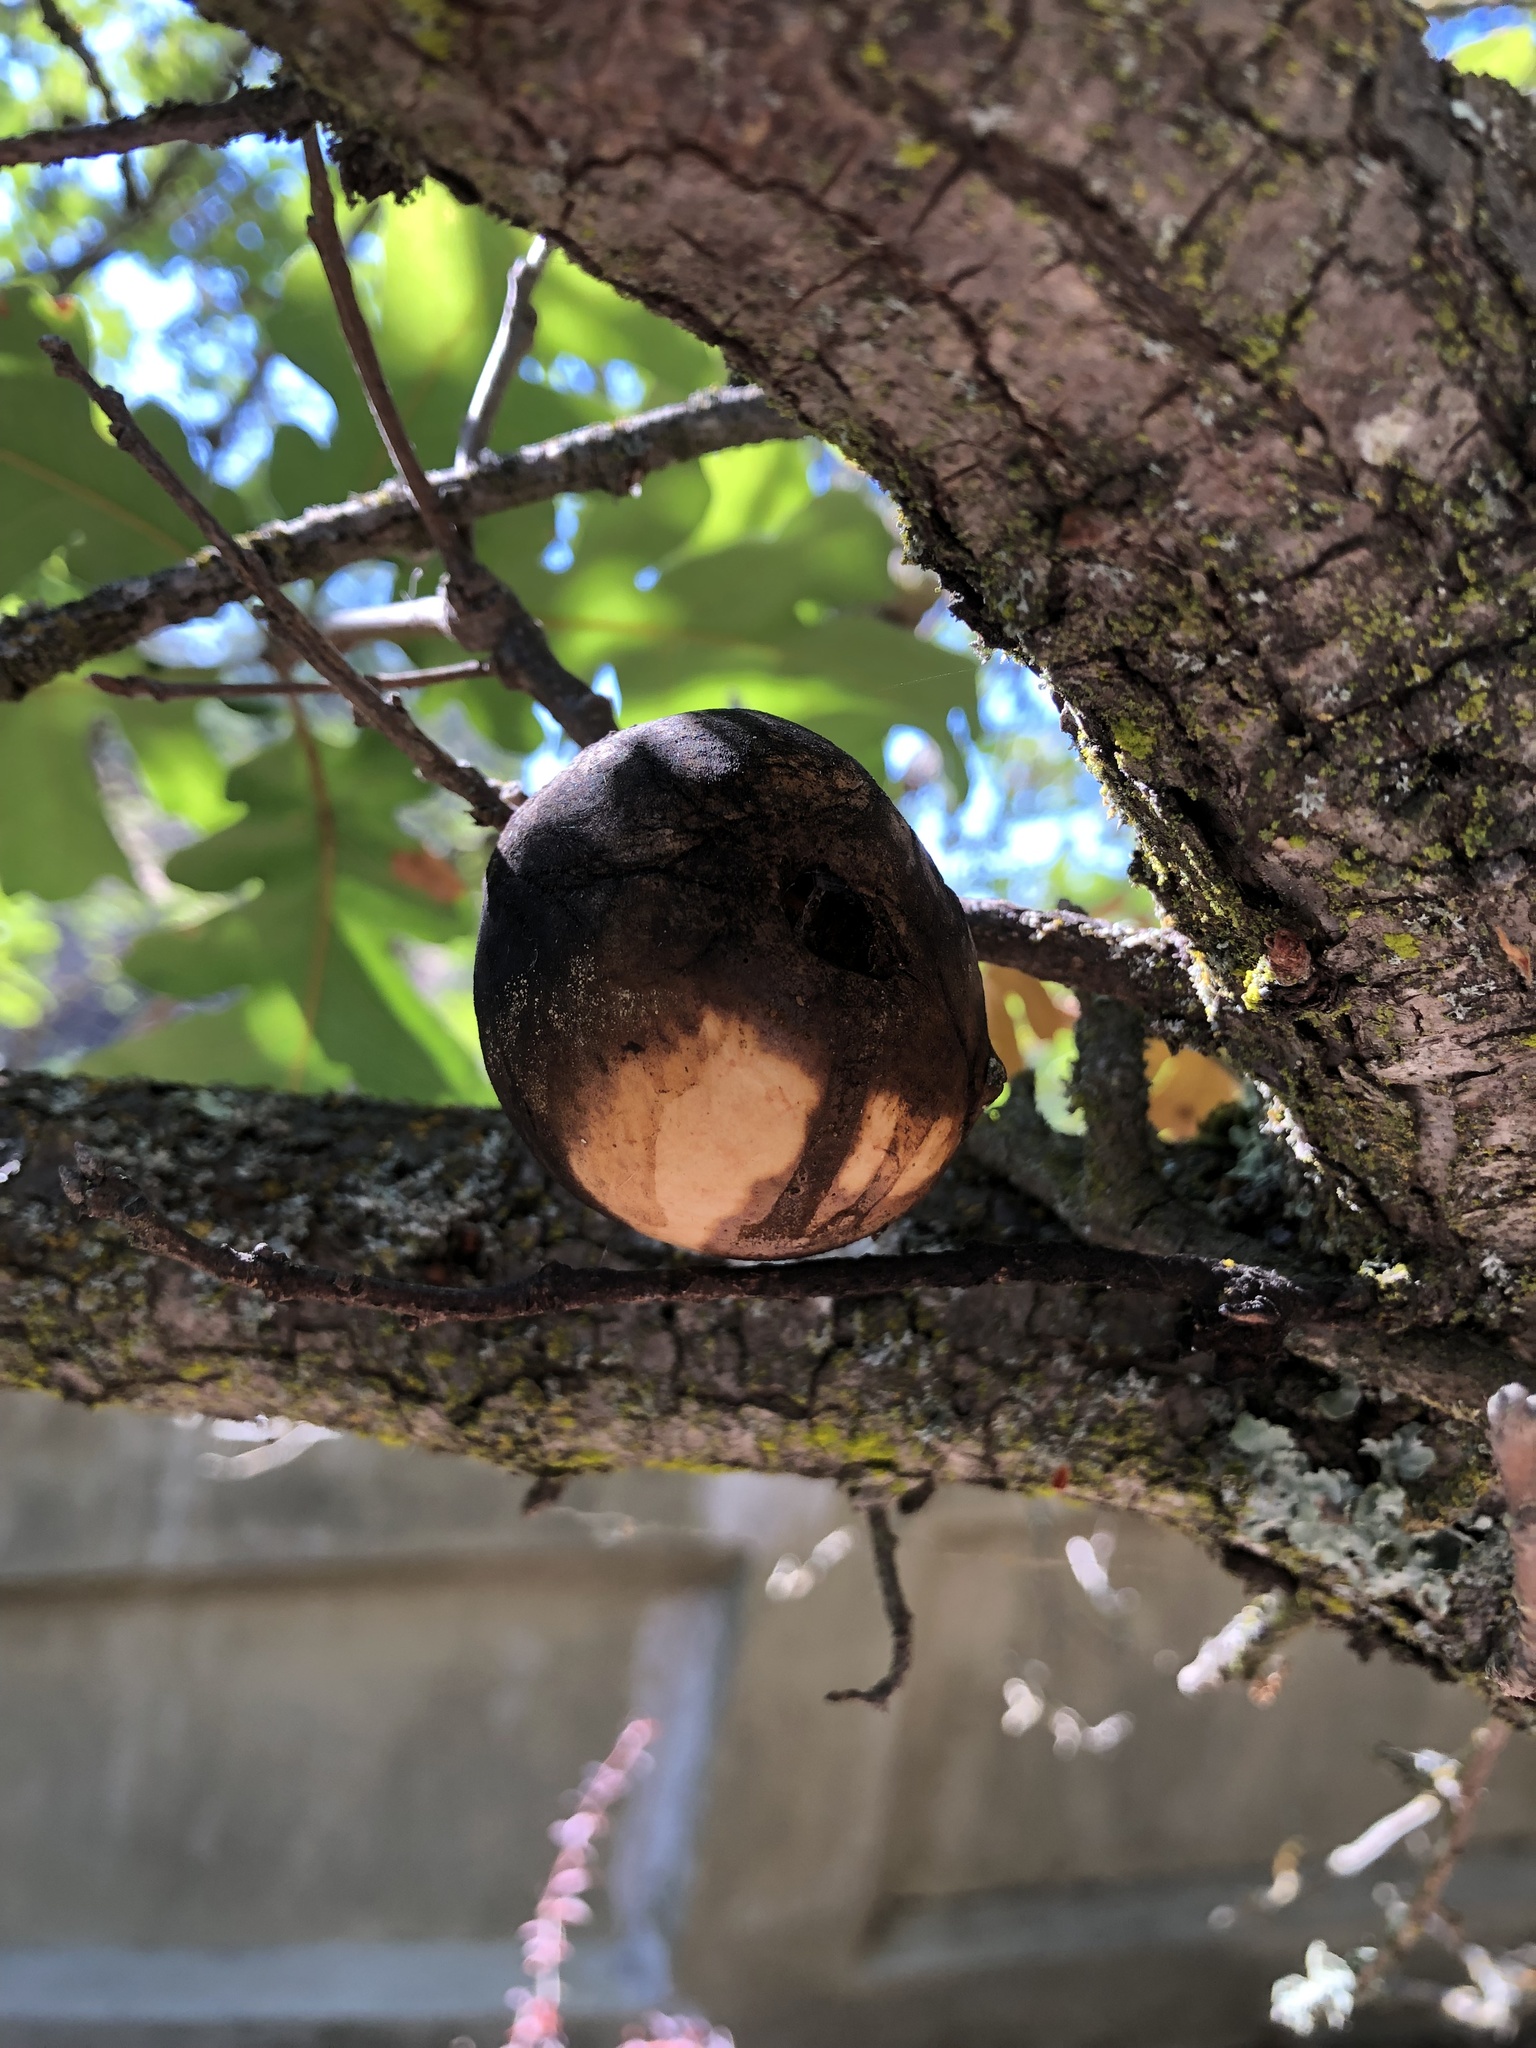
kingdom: Animalia
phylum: Arthropoda
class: Insecta
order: Hymenoptera
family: Cynipidae
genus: Andricus
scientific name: Andricus quercuscalifornicus
